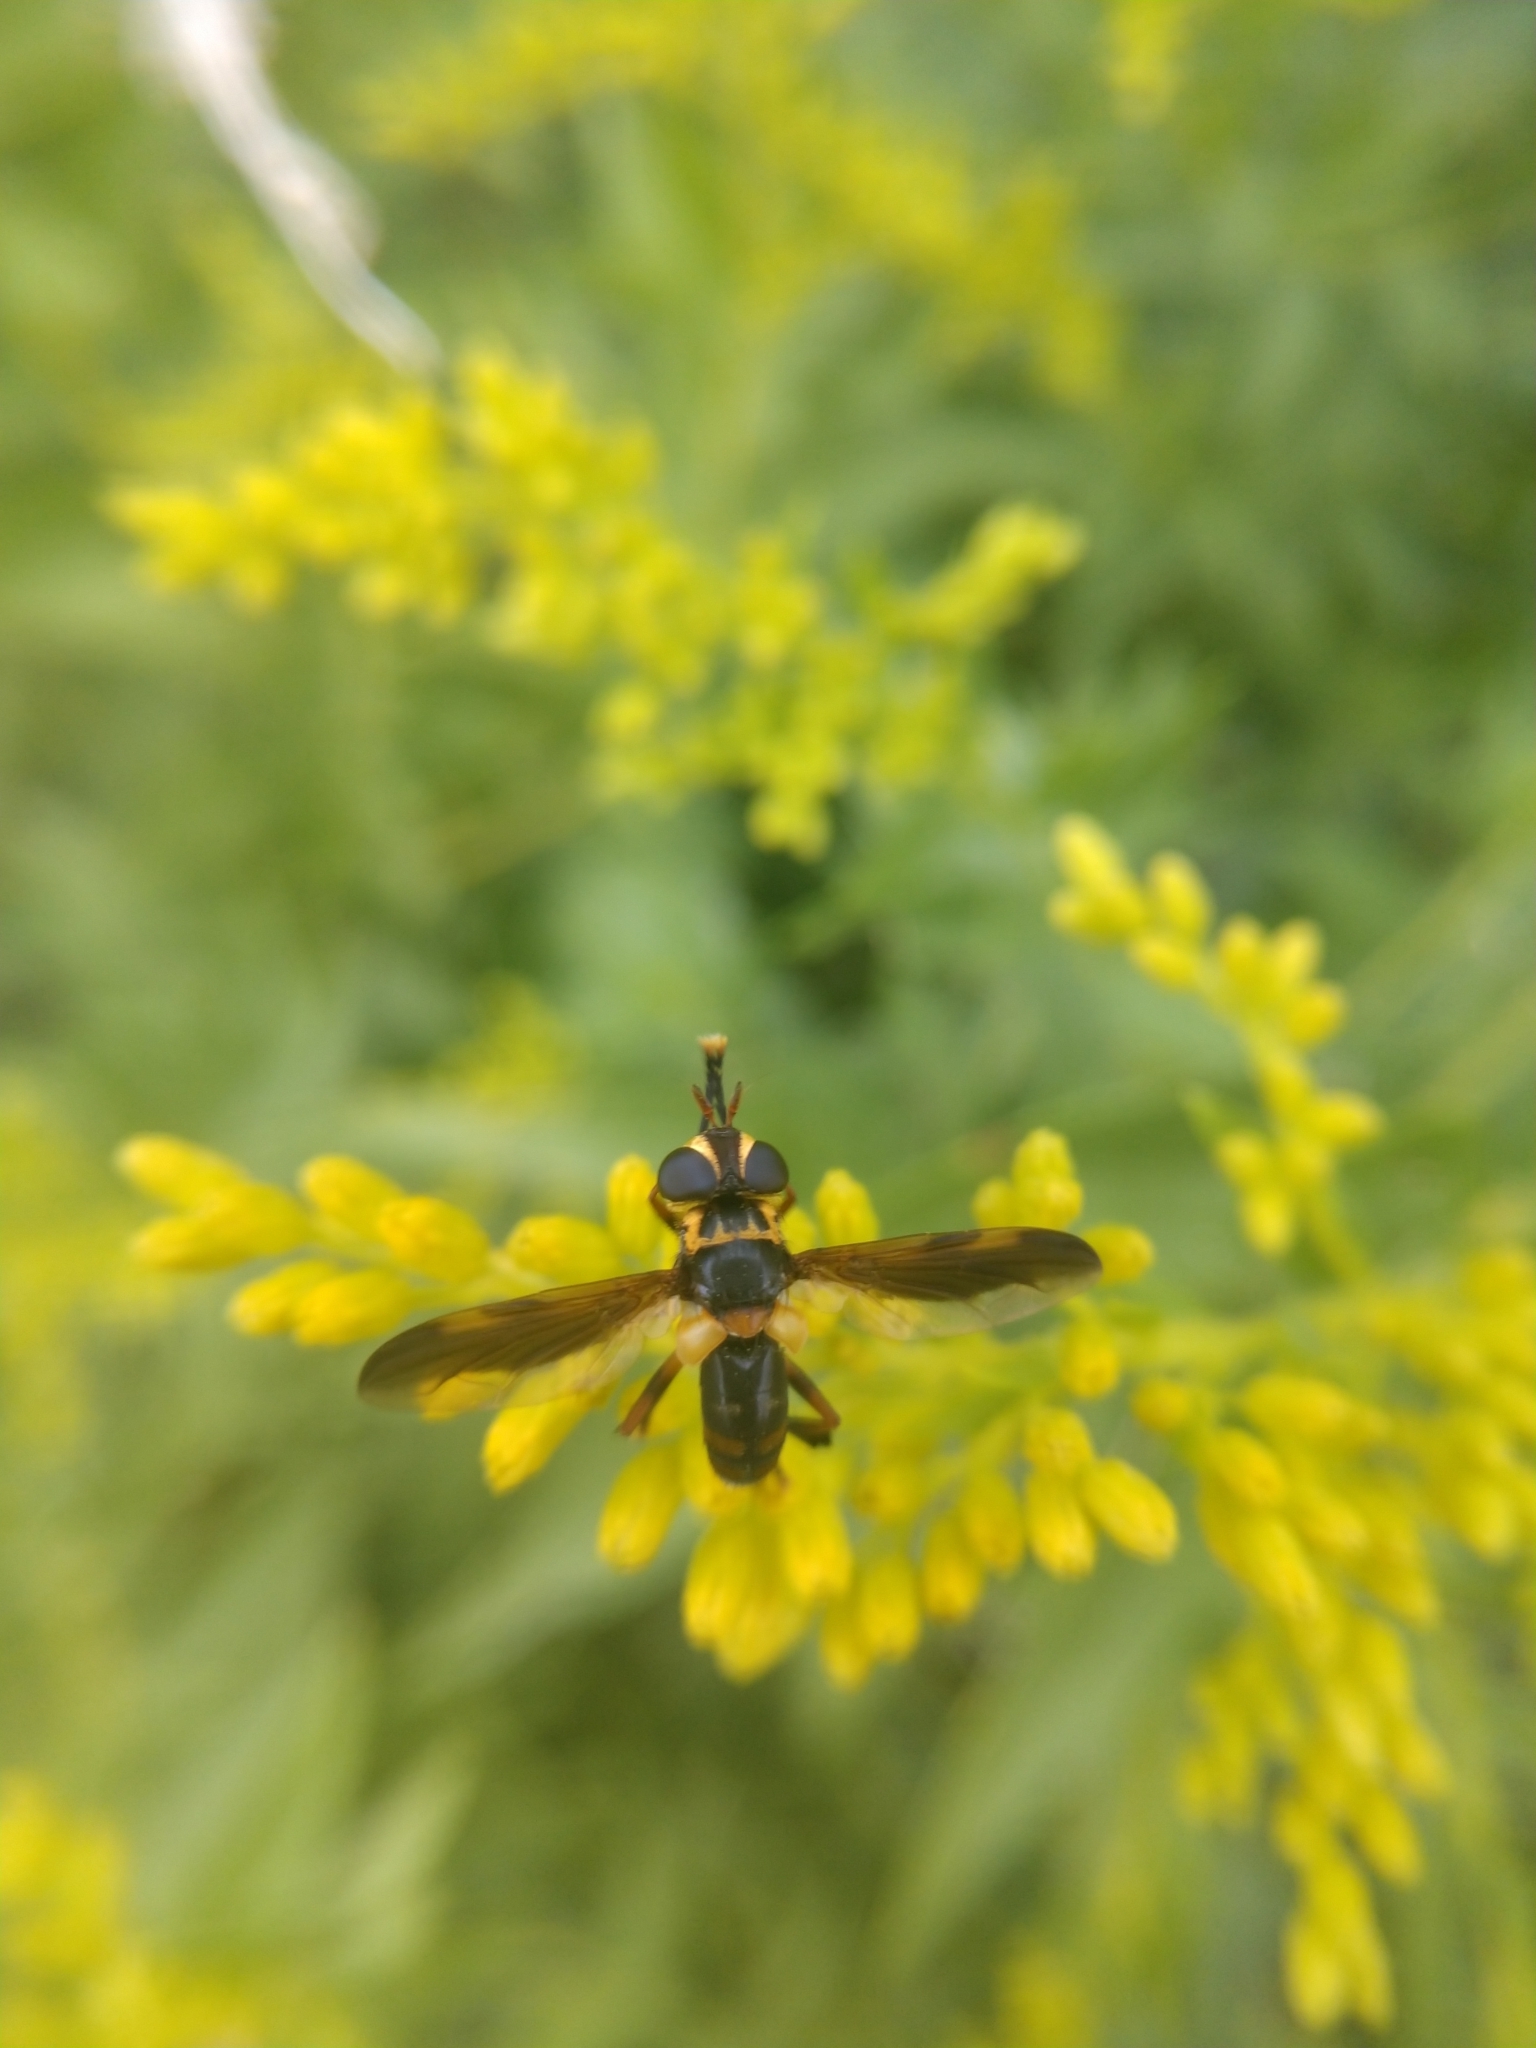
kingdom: Animalia
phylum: Arthropoda
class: Insecta
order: Diptera
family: Tachinidae
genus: Trichopoda
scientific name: Trichopoda plumipes
